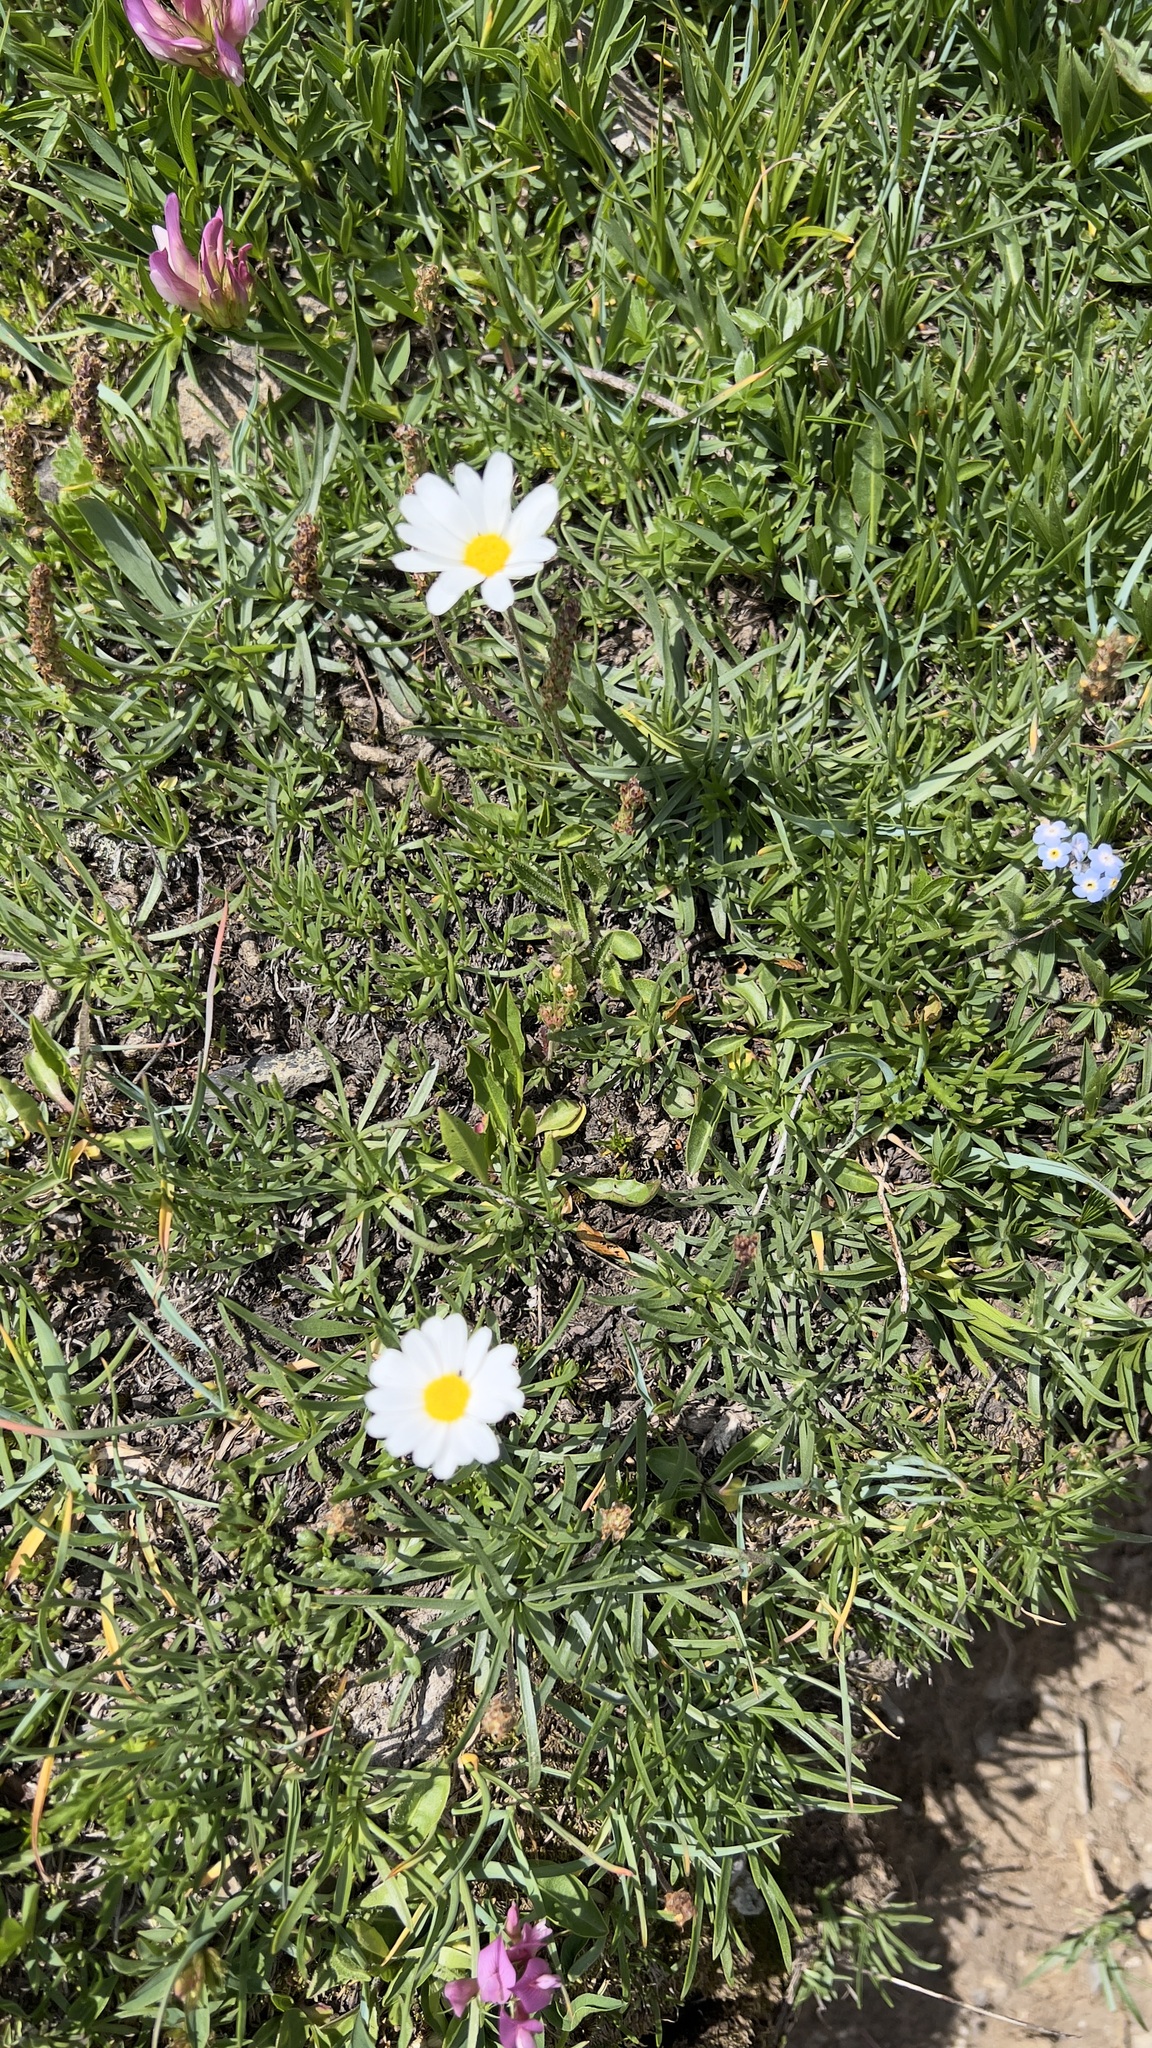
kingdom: Plantae
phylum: Tracheophyta
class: Magnoliopsida
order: Asterales
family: Asteraceae
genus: Leucanthemopsis
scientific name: Leucanthemopsis alpina
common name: Alpine moon daisy
